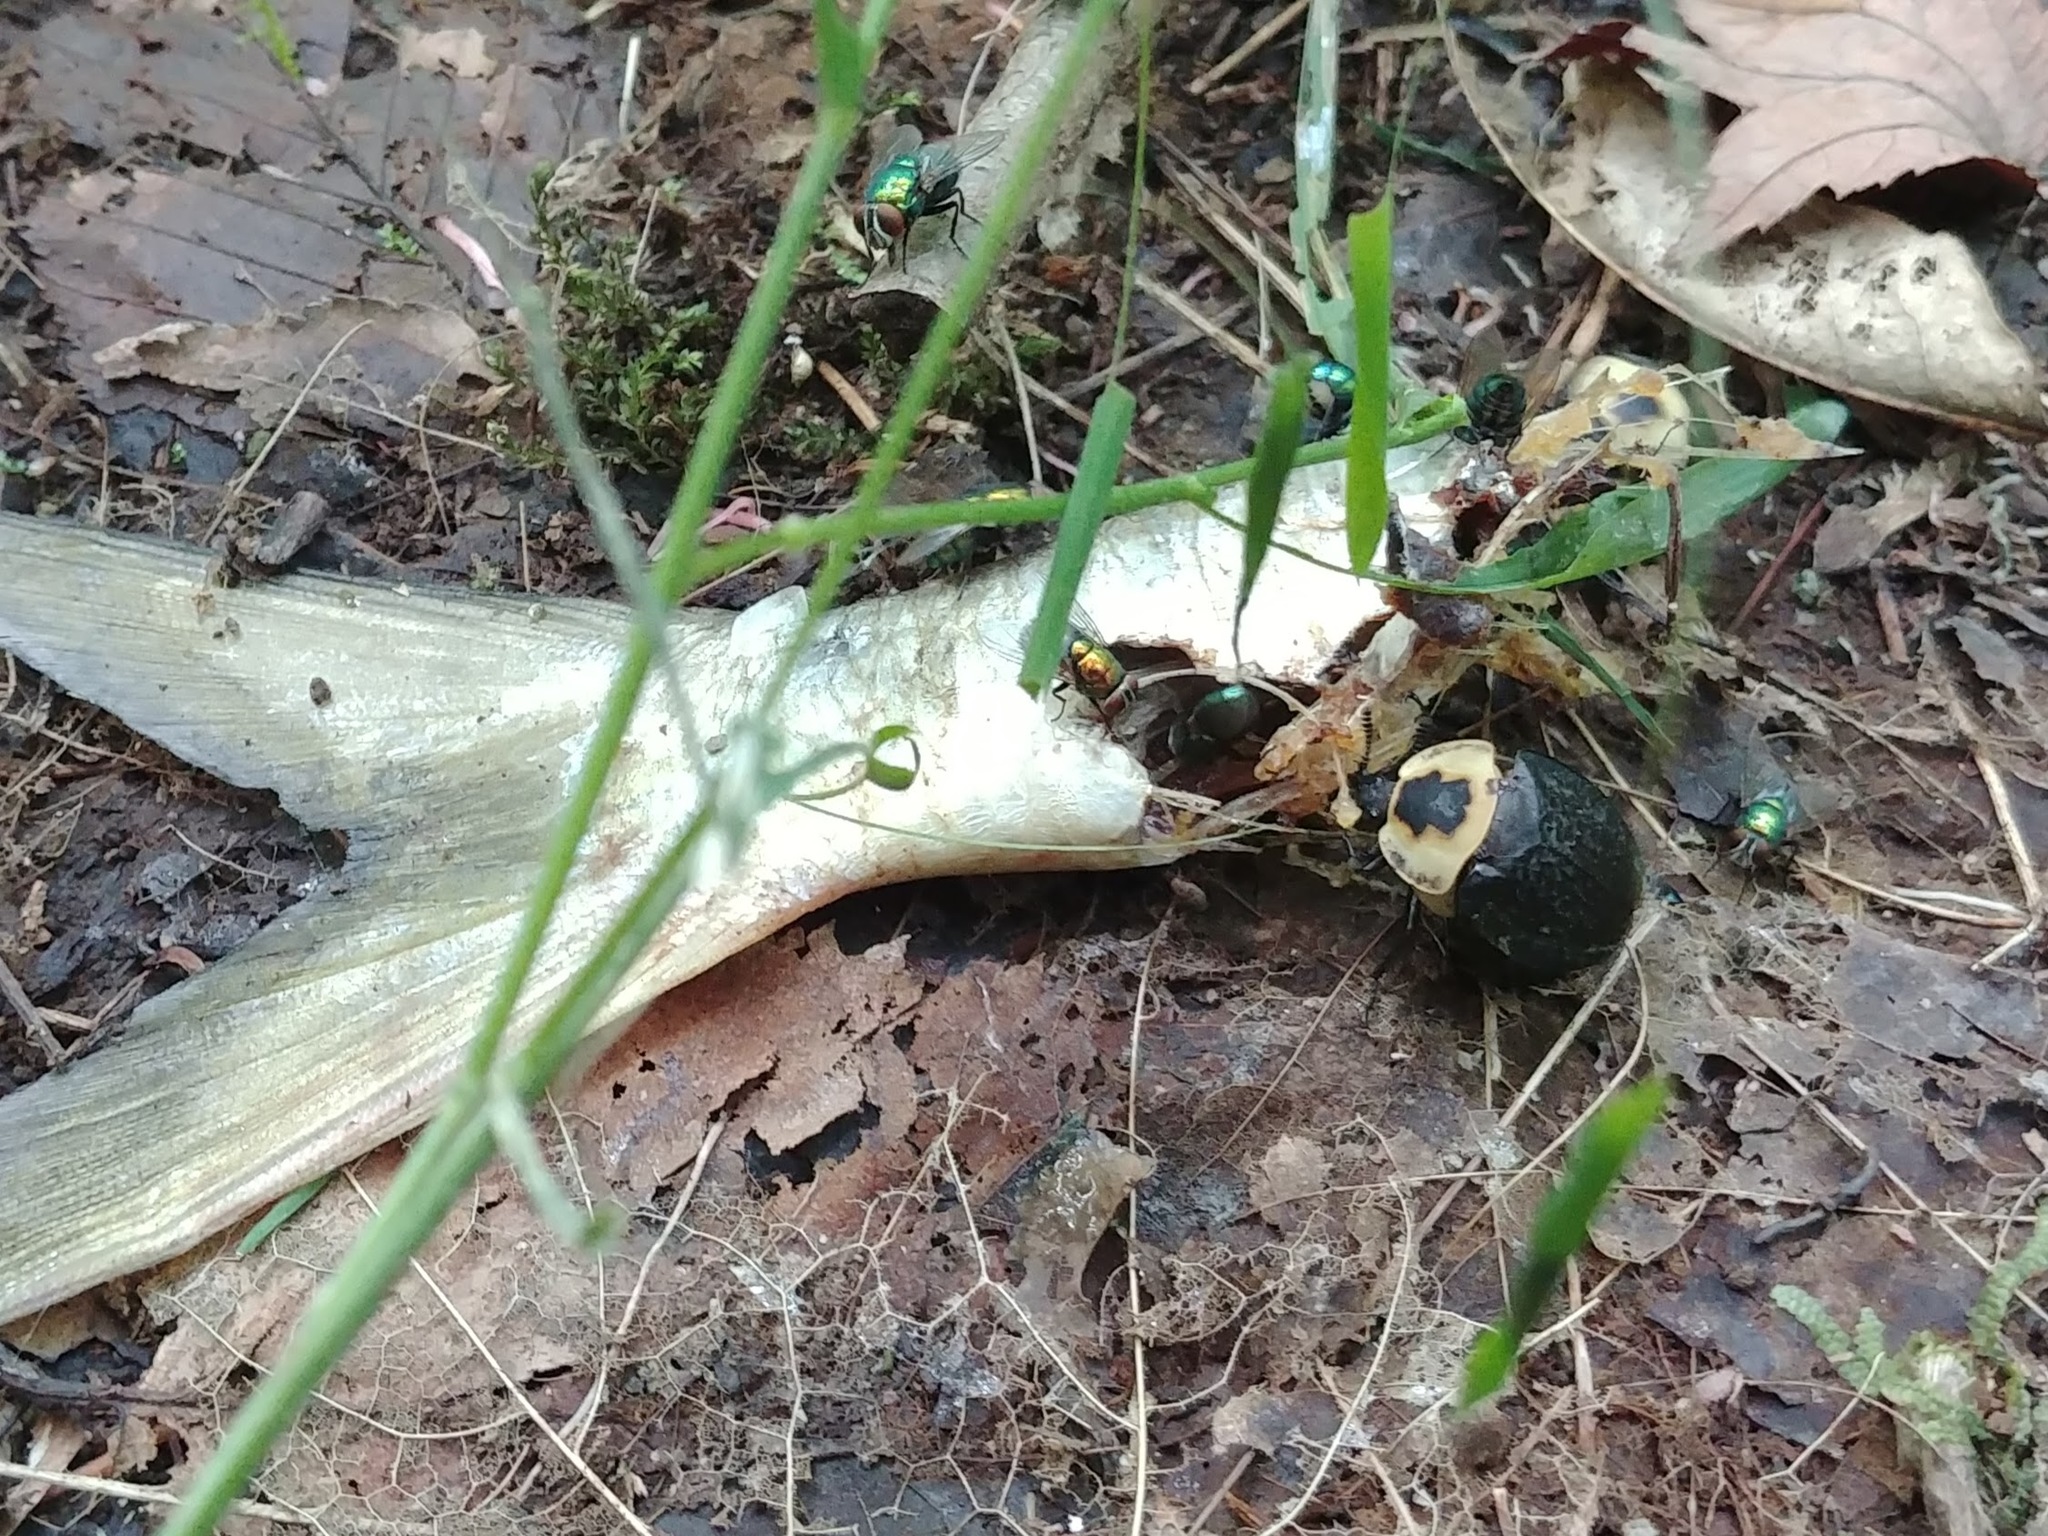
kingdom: Animalia
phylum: Arthropoda
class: Insecta
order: Coleoptera
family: Staphylinidae
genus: Necrophila
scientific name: Necrophila americana
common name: American carrion beetle
